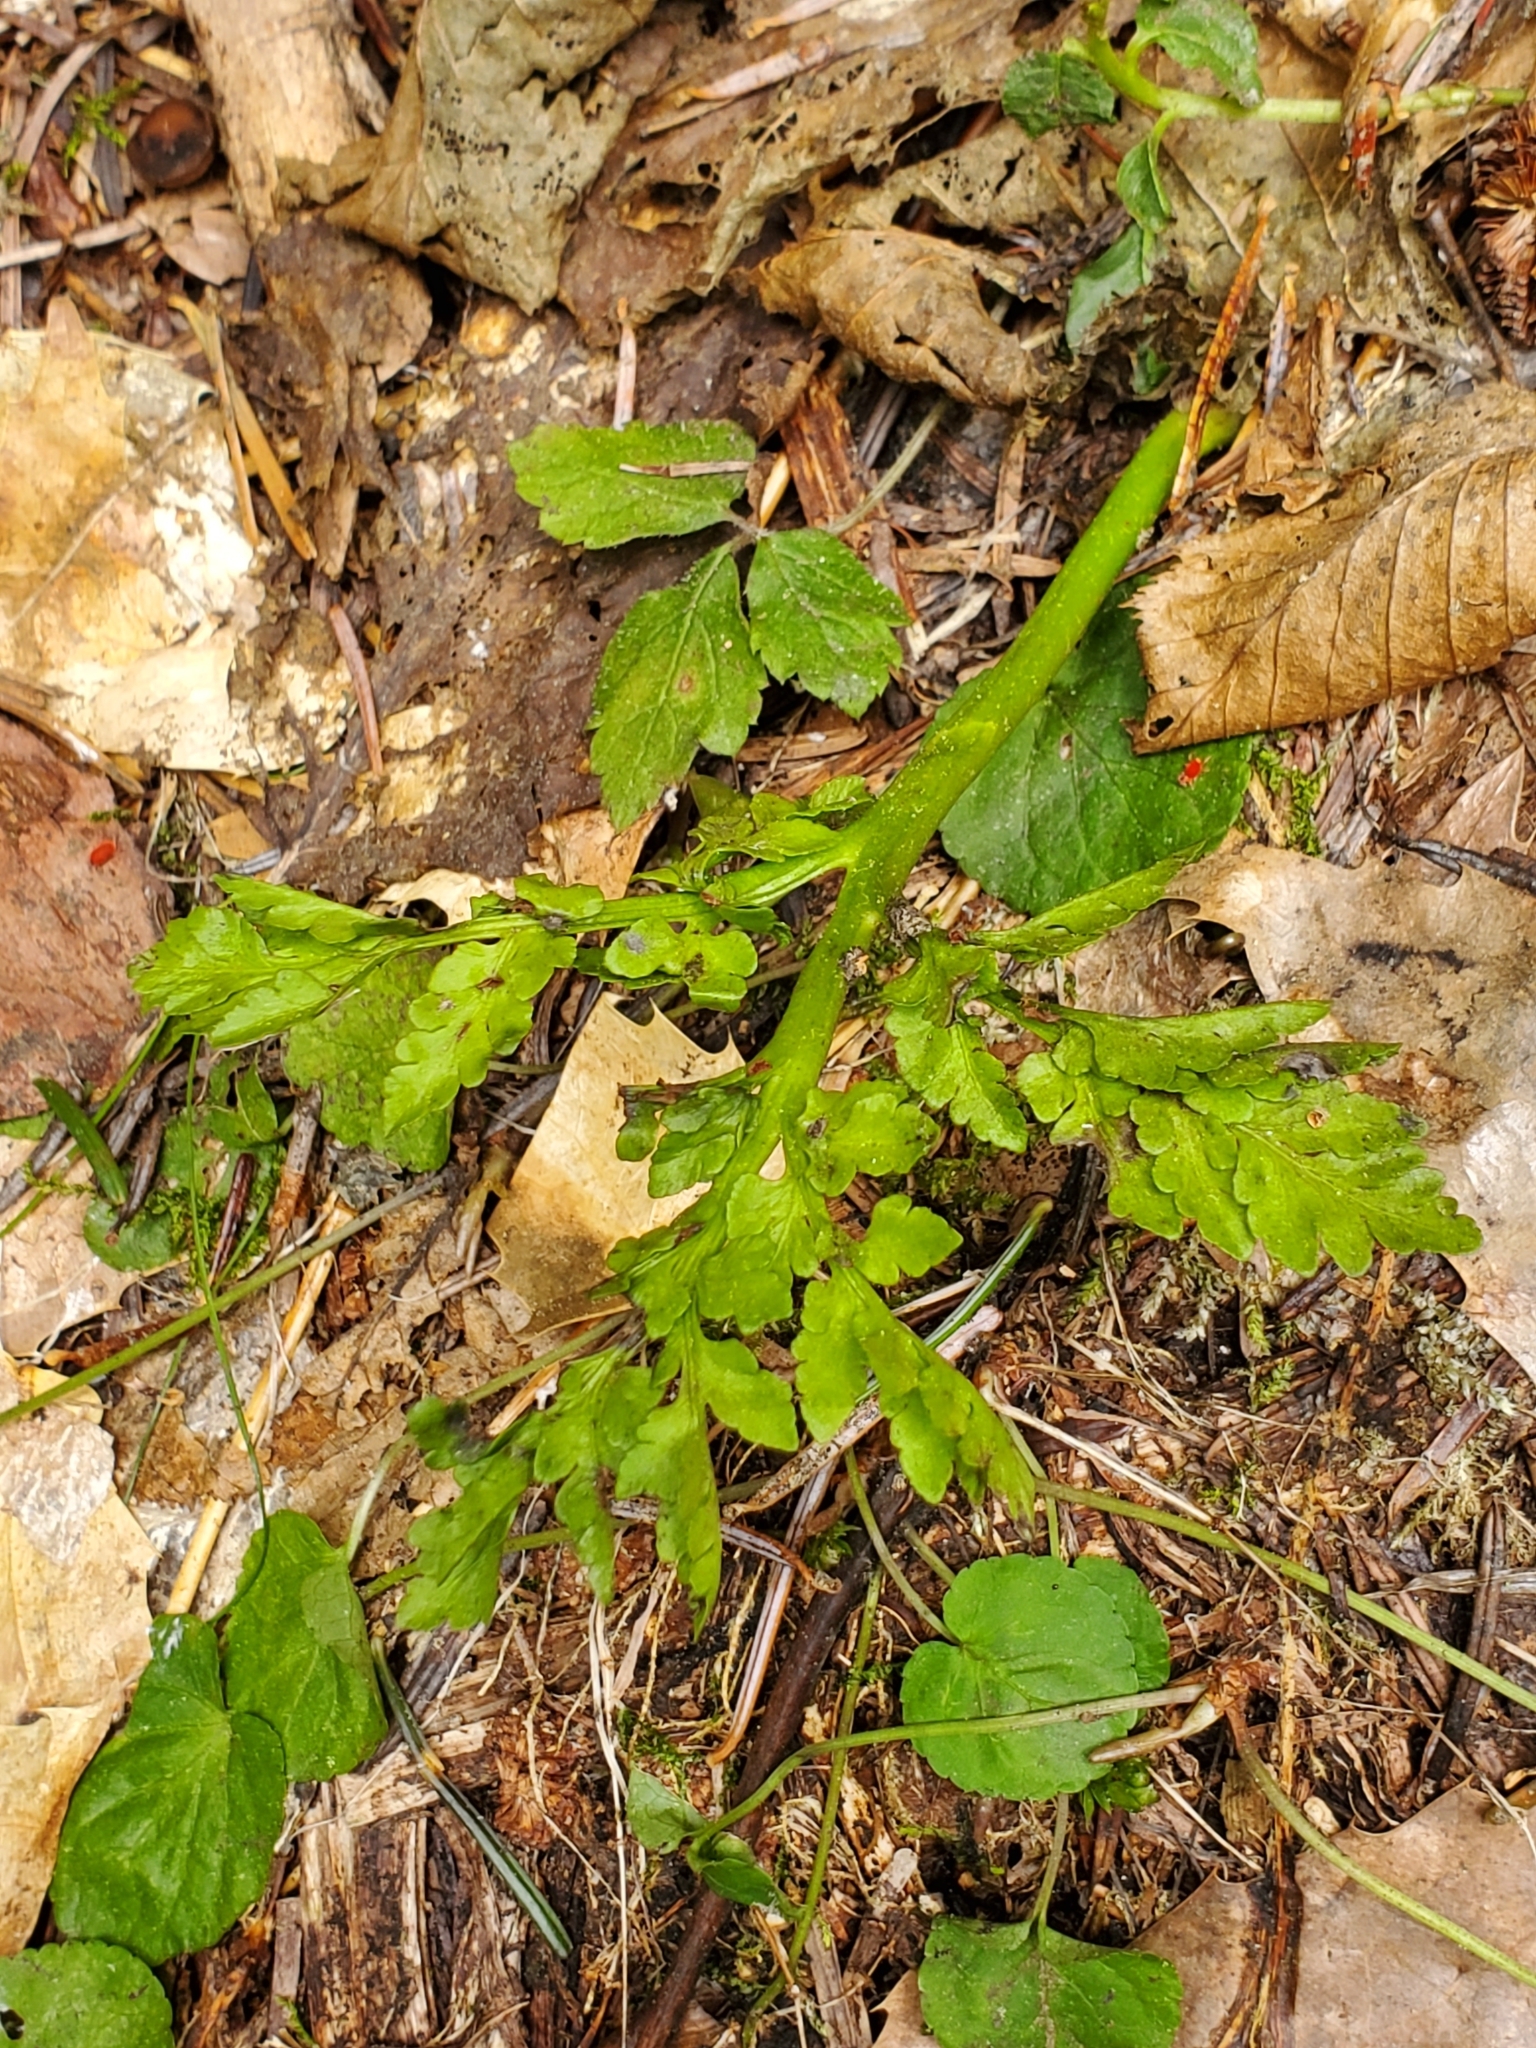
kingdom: Plantae
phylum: Tracheophyta
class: Polypodiopsida
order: Ophioglossales
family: Ophioglossaceae
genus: Sceptridium
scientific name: Sceptridium multifidum
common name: Leathery grape fern
